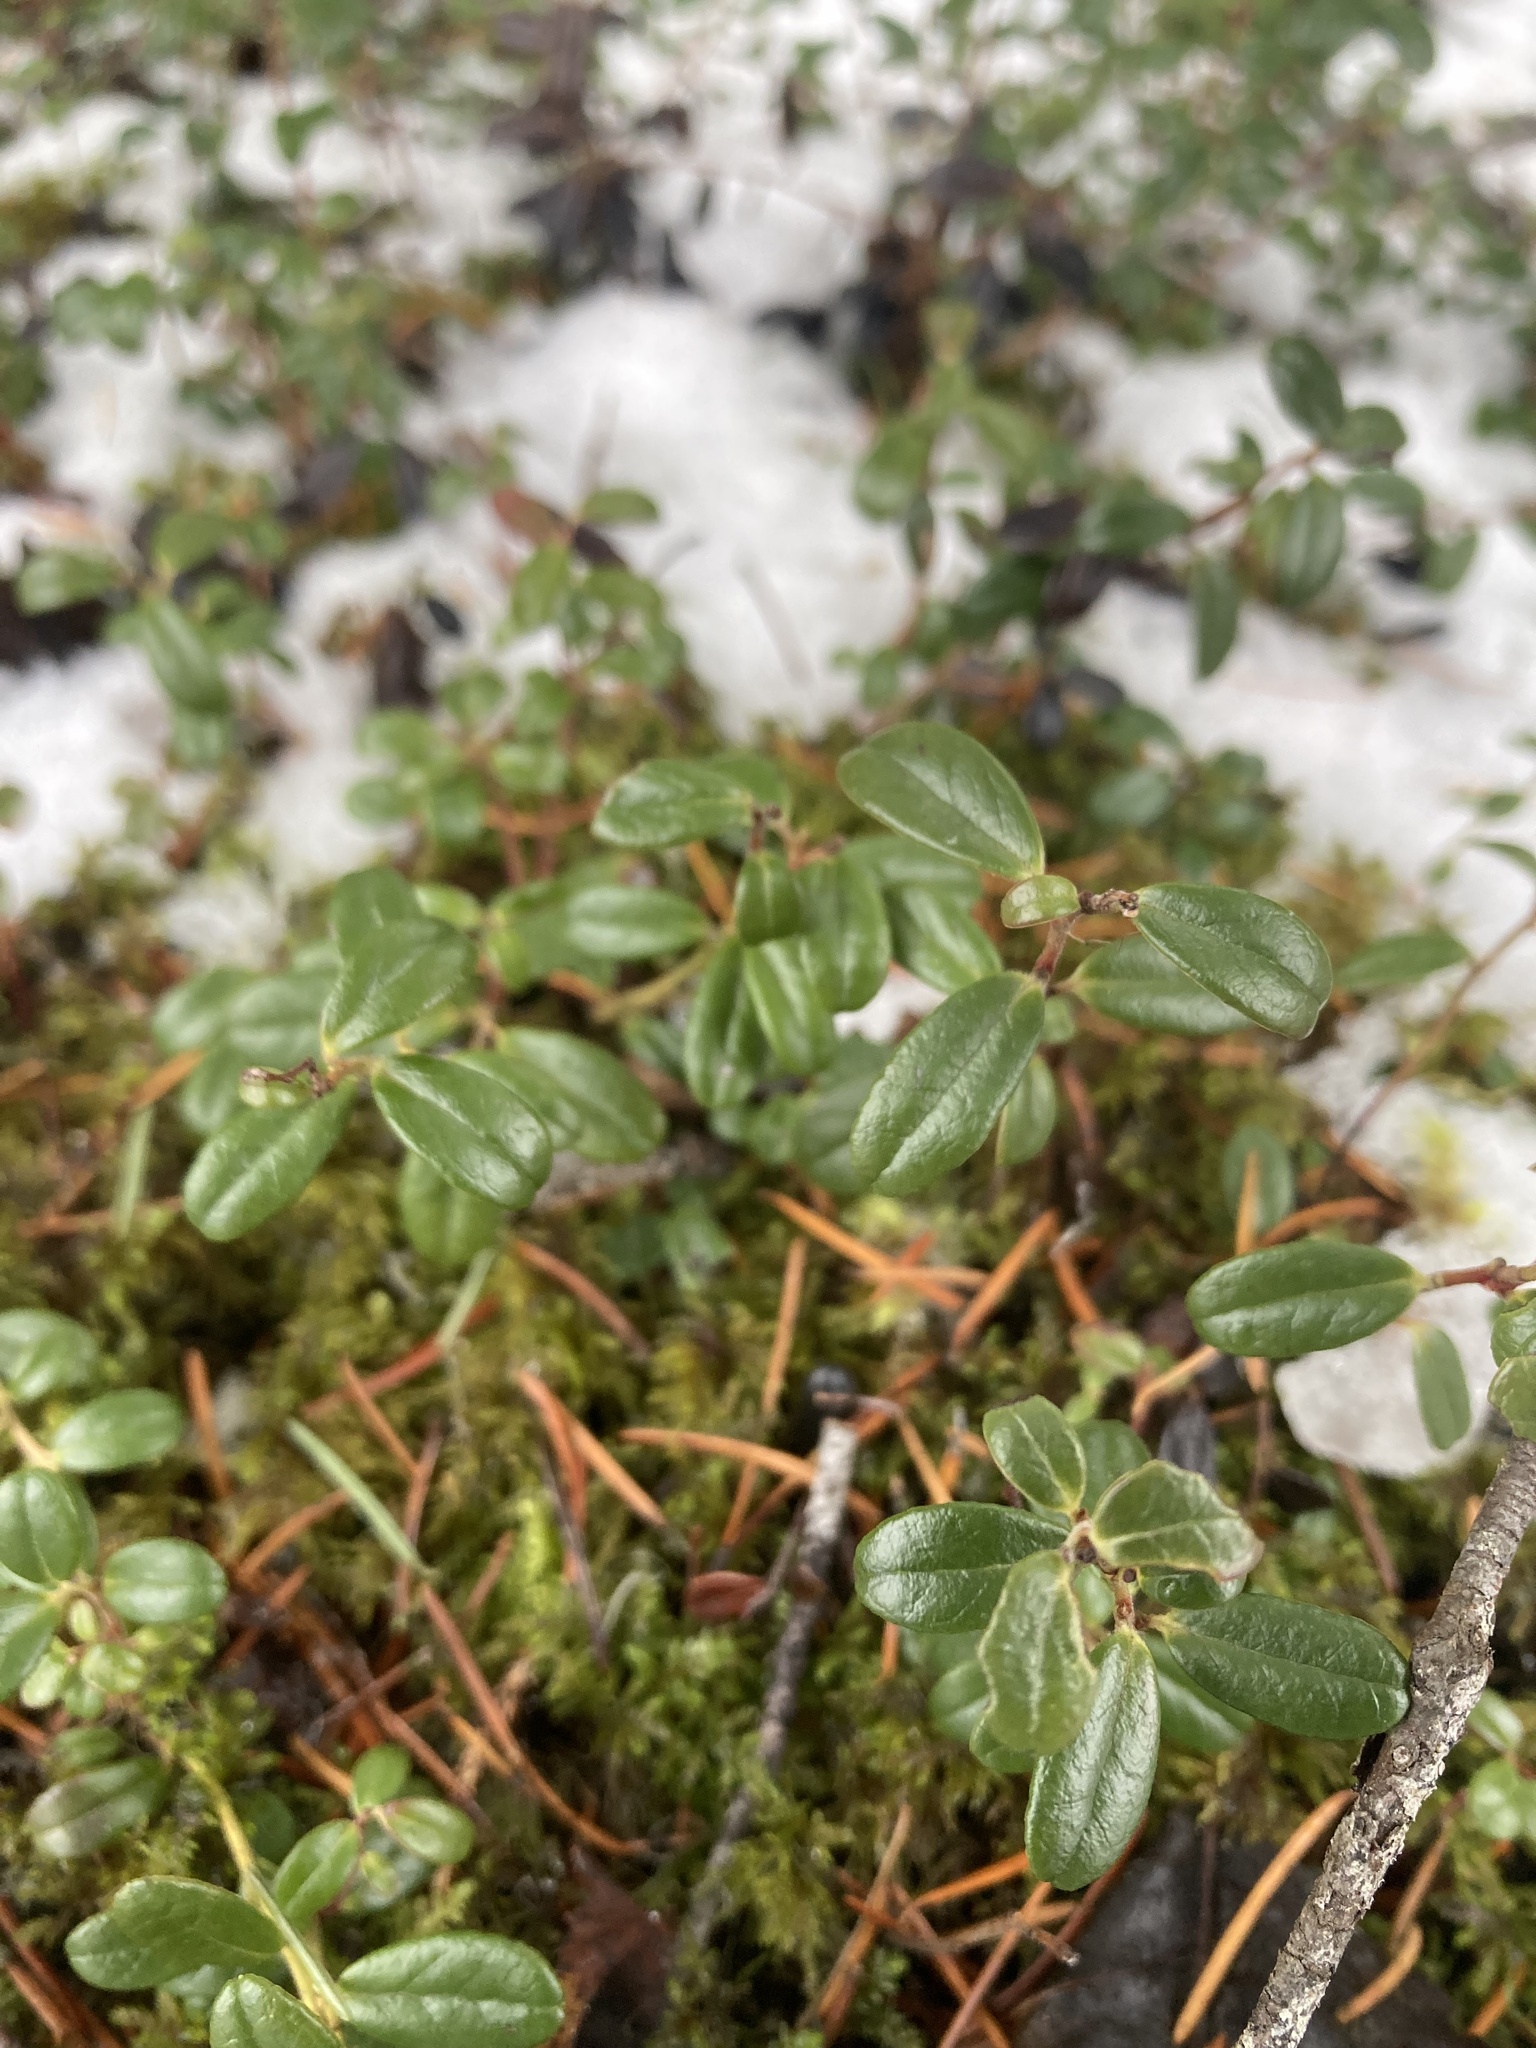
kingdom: Plantae
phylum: Tracheophyta
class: Magnoliopsida
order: Ericales
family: Ericaceae
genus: Vaccinium
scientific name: Vaccinium vitis-idaea
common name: Cowberry
